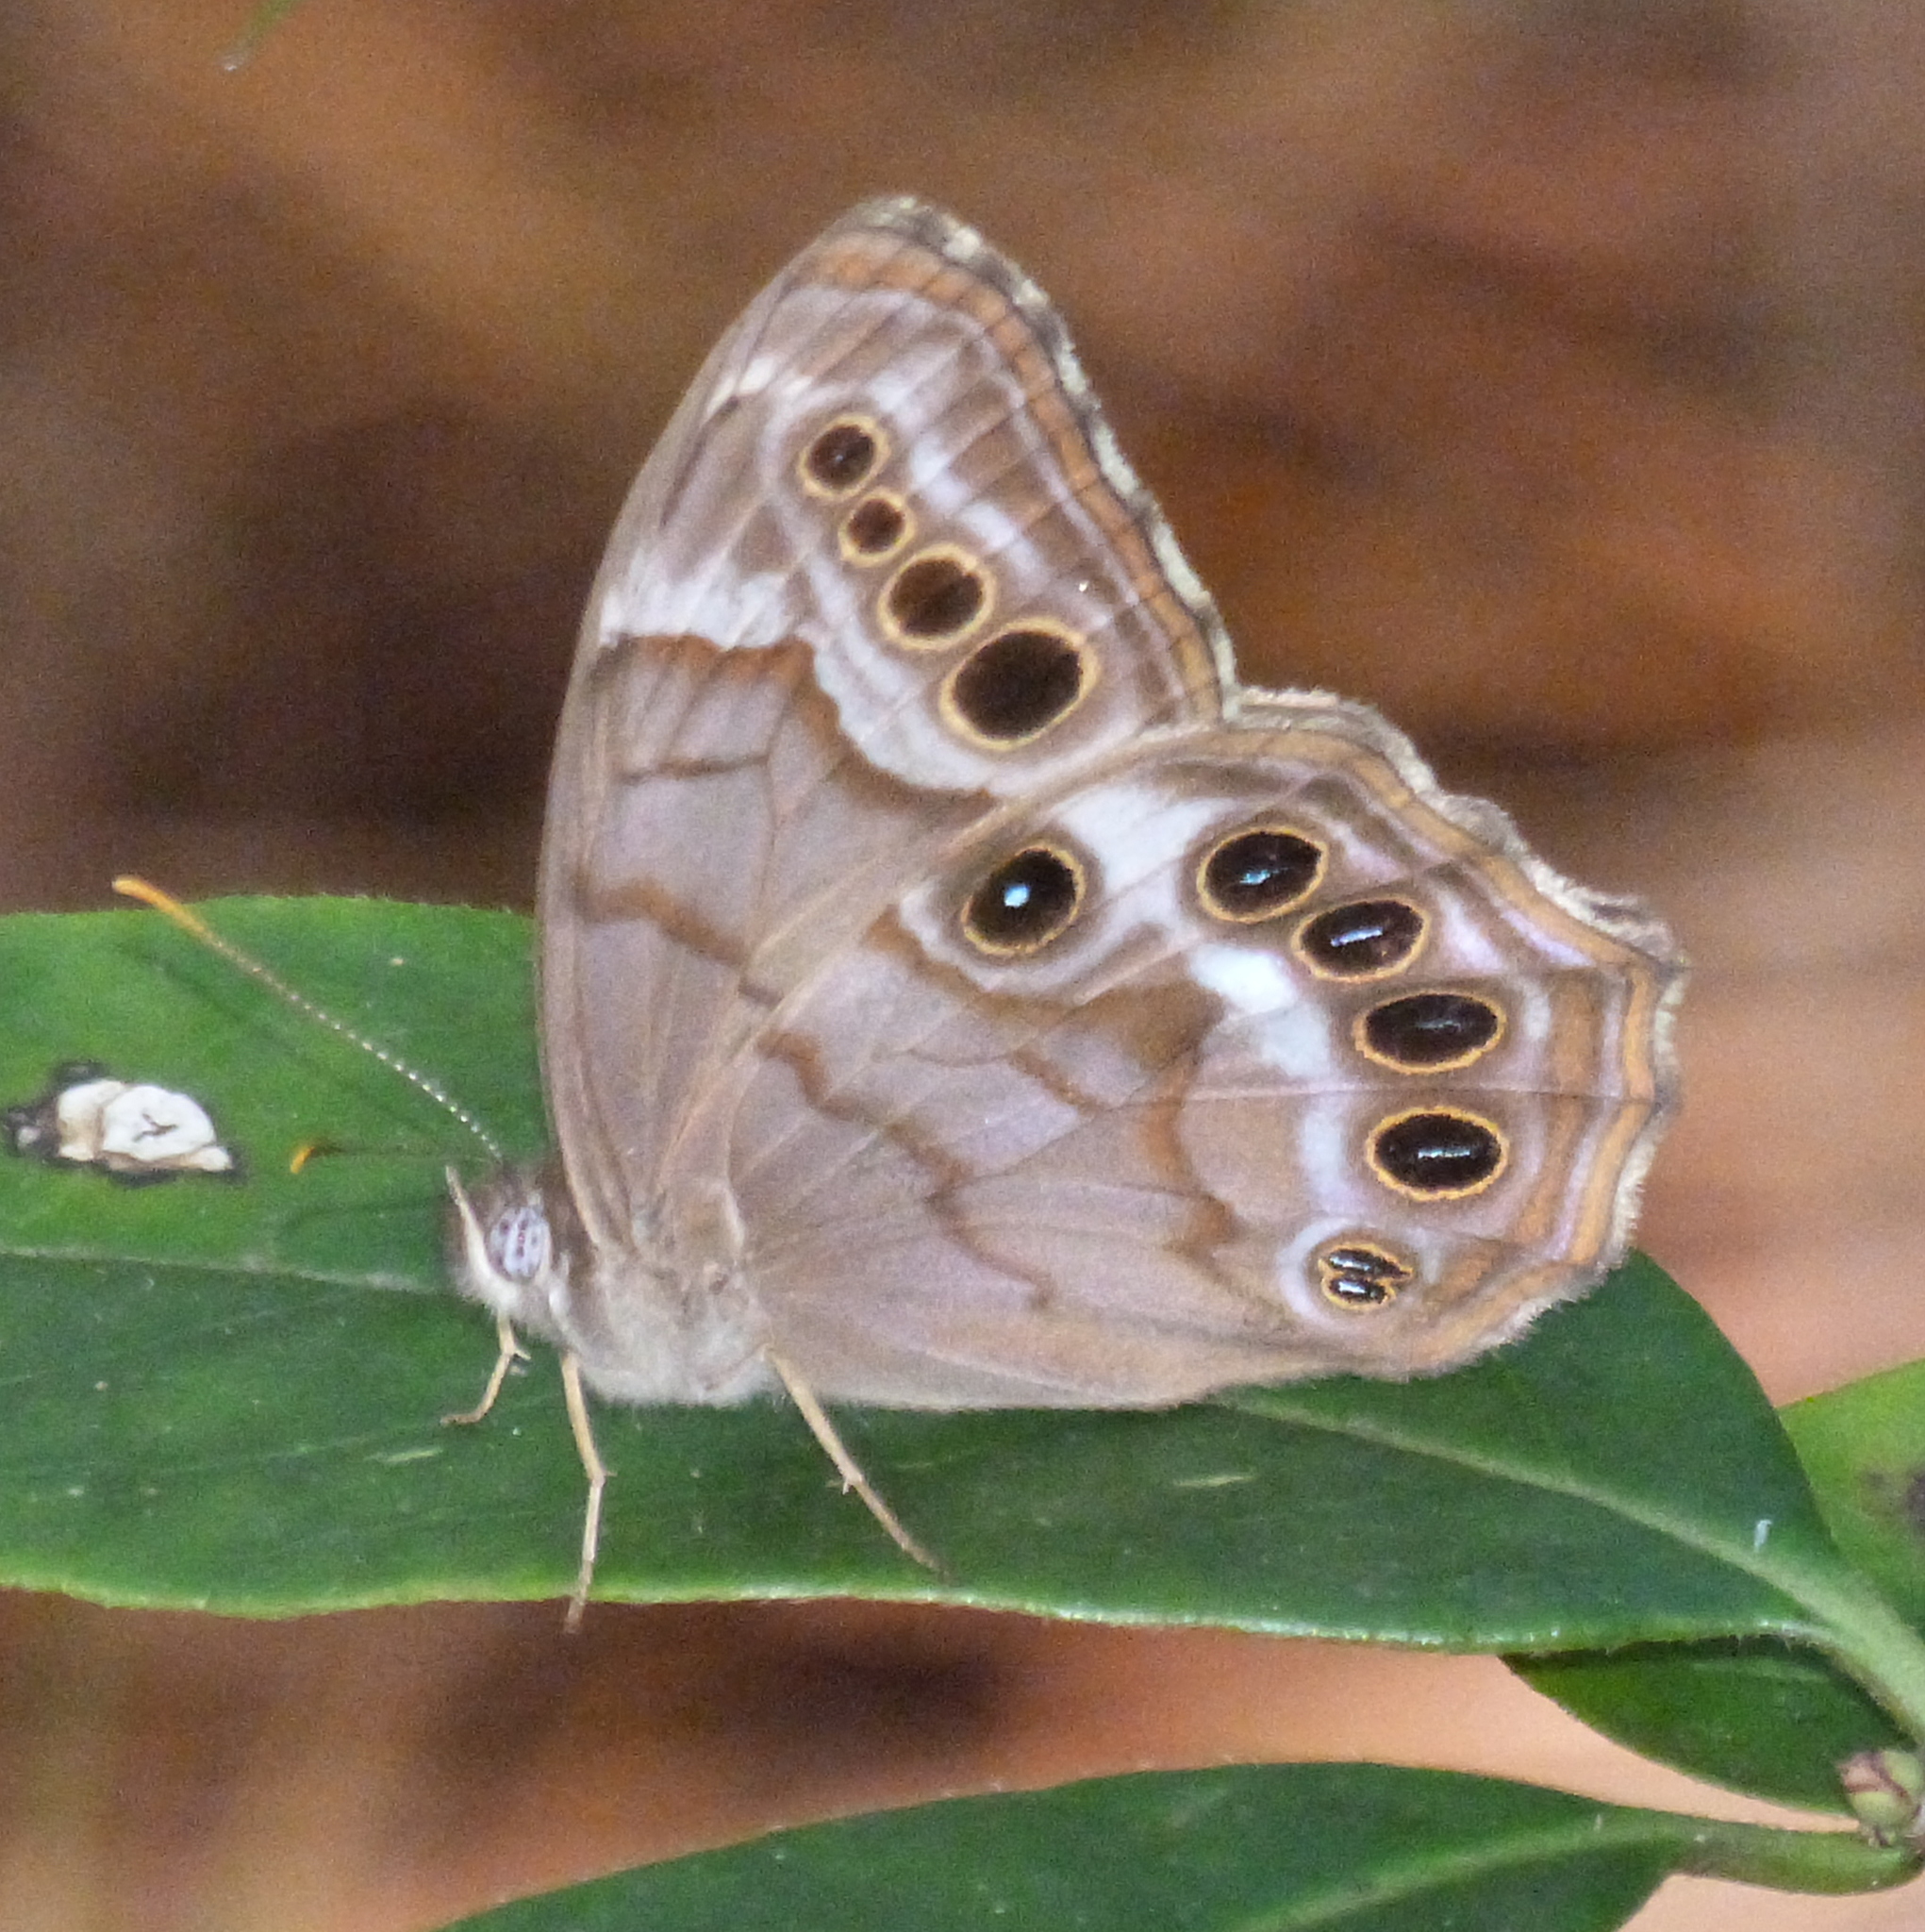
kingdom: Animalia
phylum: Arthropoda
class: Insecta
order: Lepidoptera
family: Nymphalidae
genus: Enodia
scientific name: Enodia portlandia
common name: Southern pearly-eye
